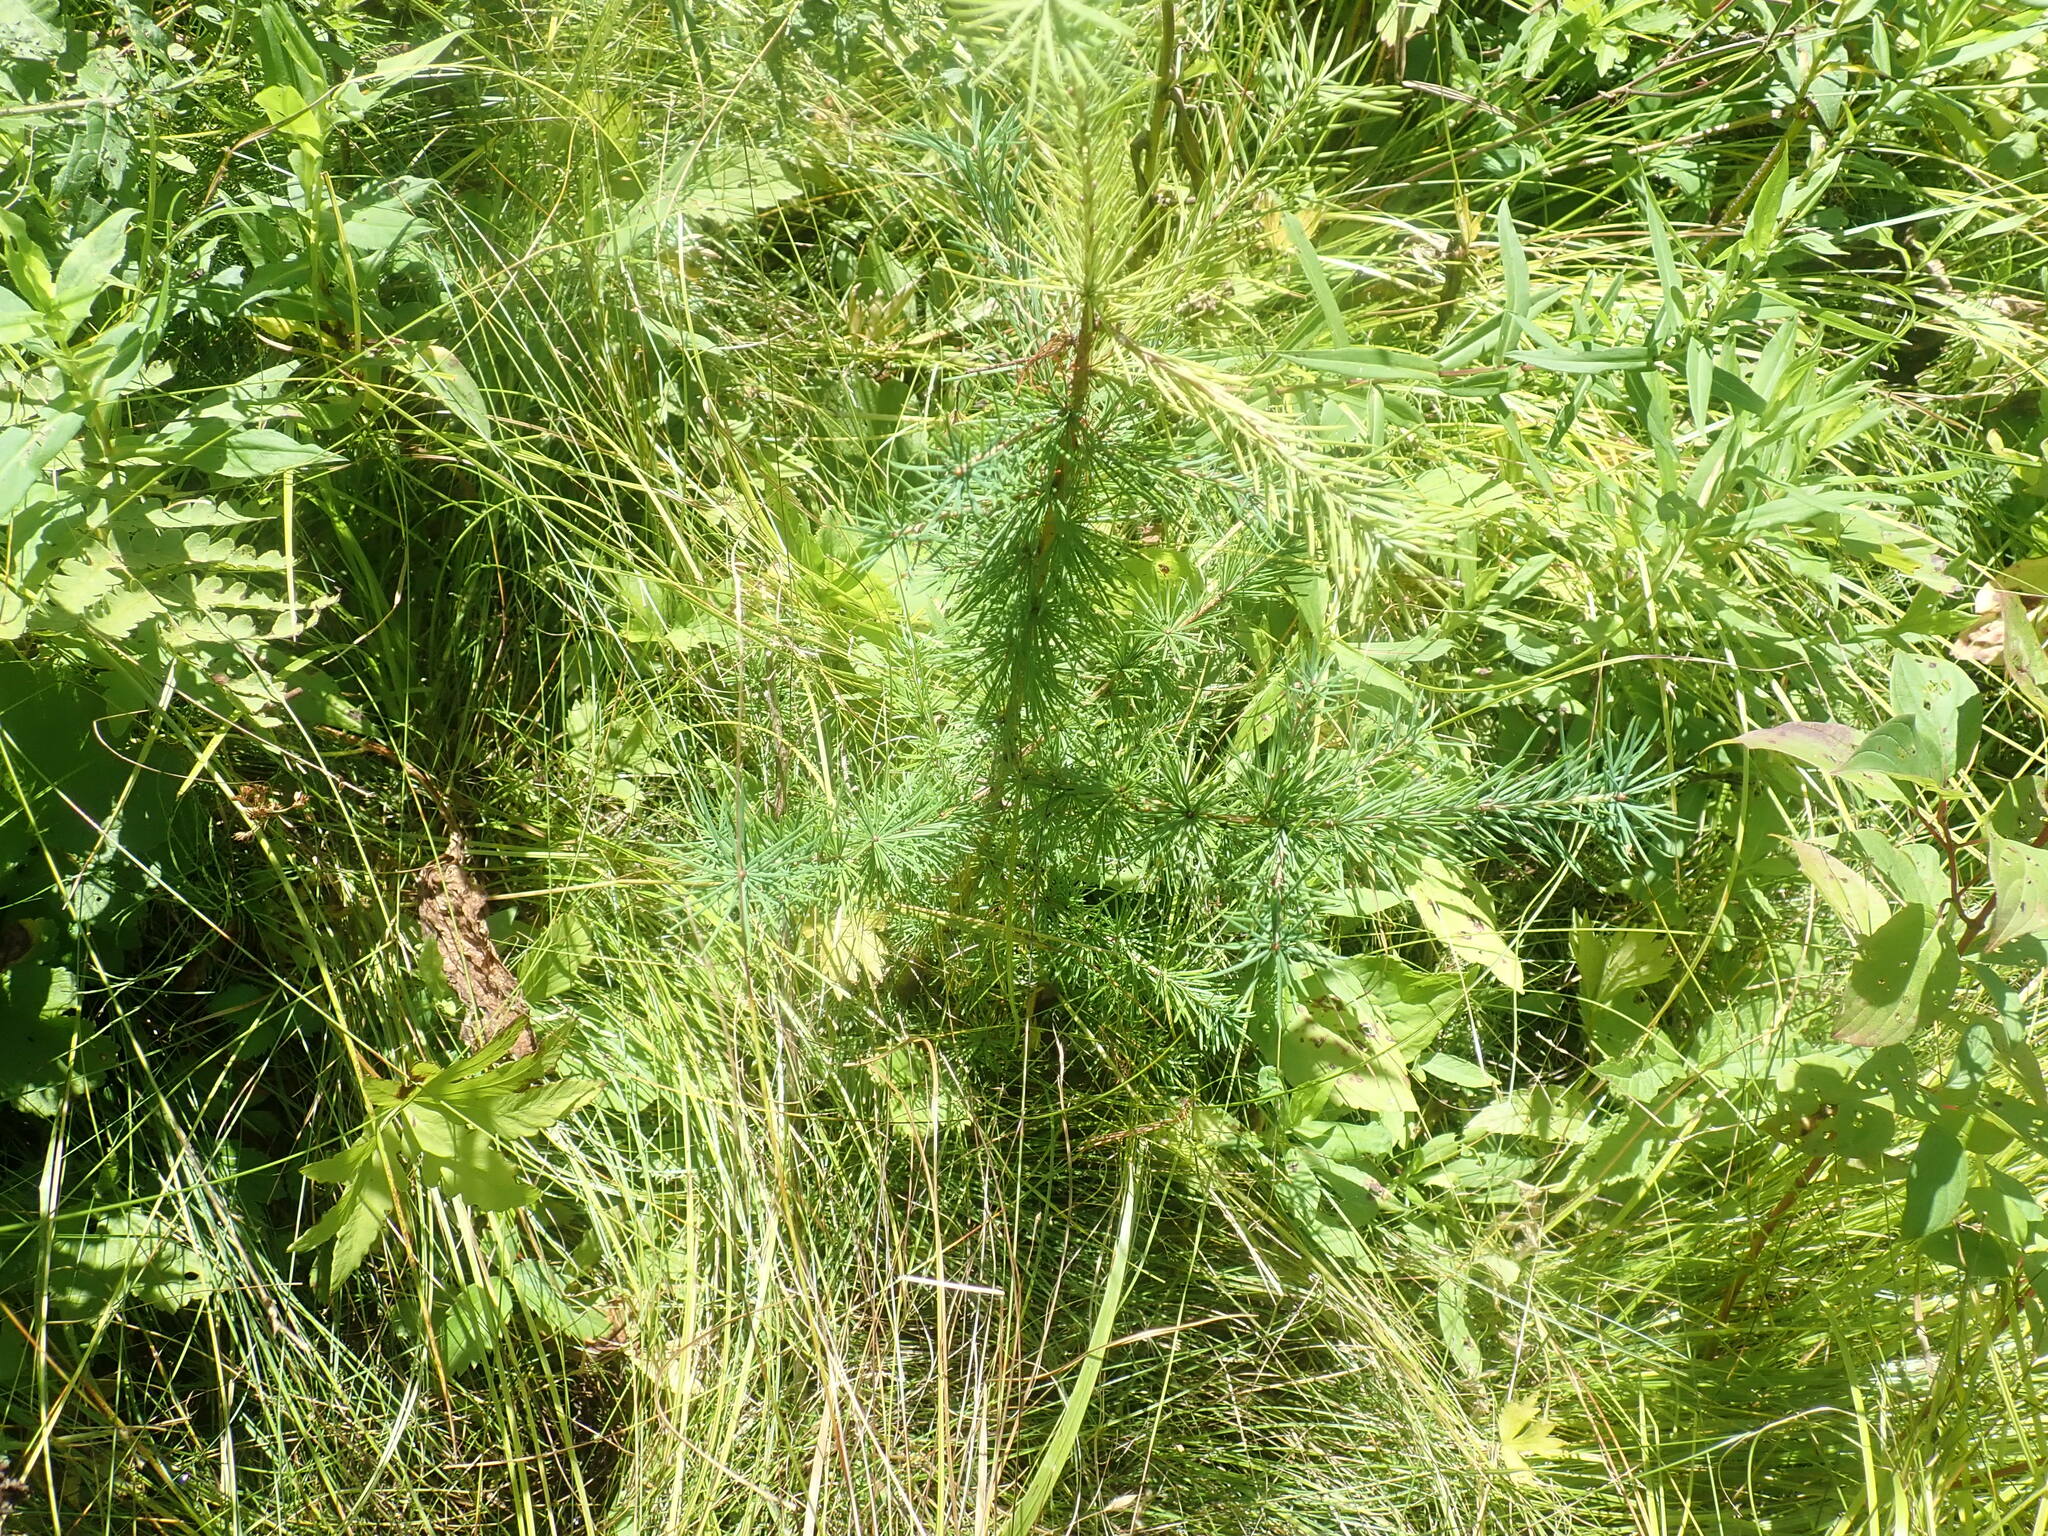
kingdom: Plantae
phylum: Tracheophyta
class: Pinopsida
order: Pinales
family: Pinaceae
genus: Larix
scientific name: Larix laricina
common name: American larch
